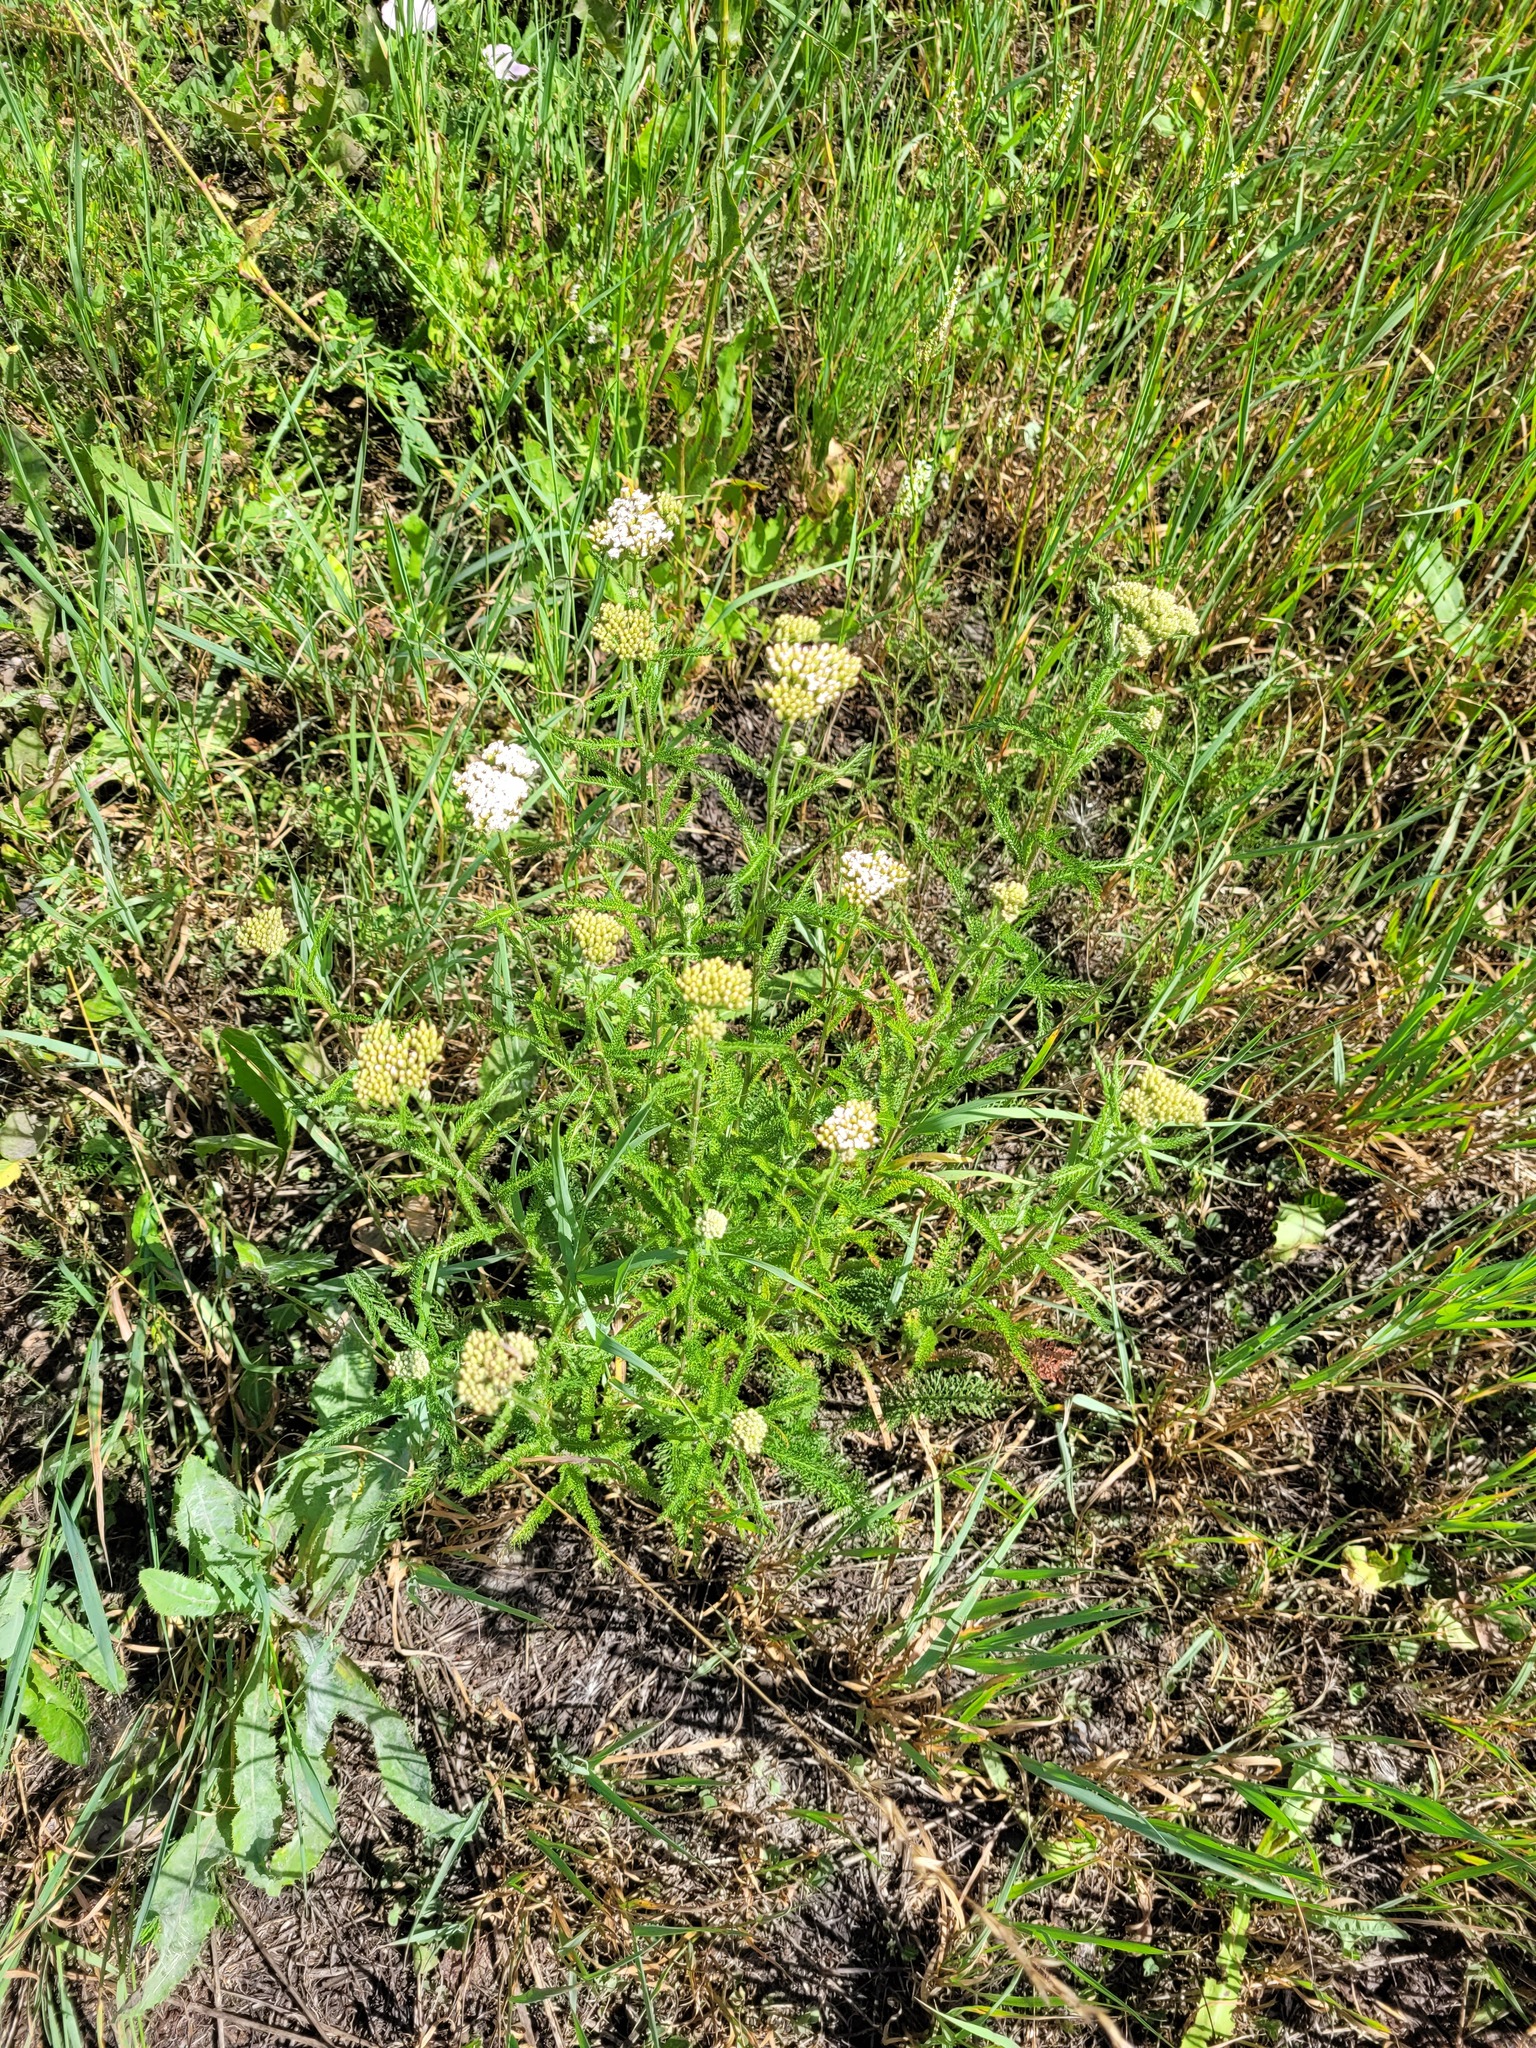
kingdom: Plantae
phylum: Tracheophyta
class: Magnoliopsida
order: Asterales
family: Asteraceae
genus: Achillea
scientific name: Achillea millefolium
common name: Yarrow
